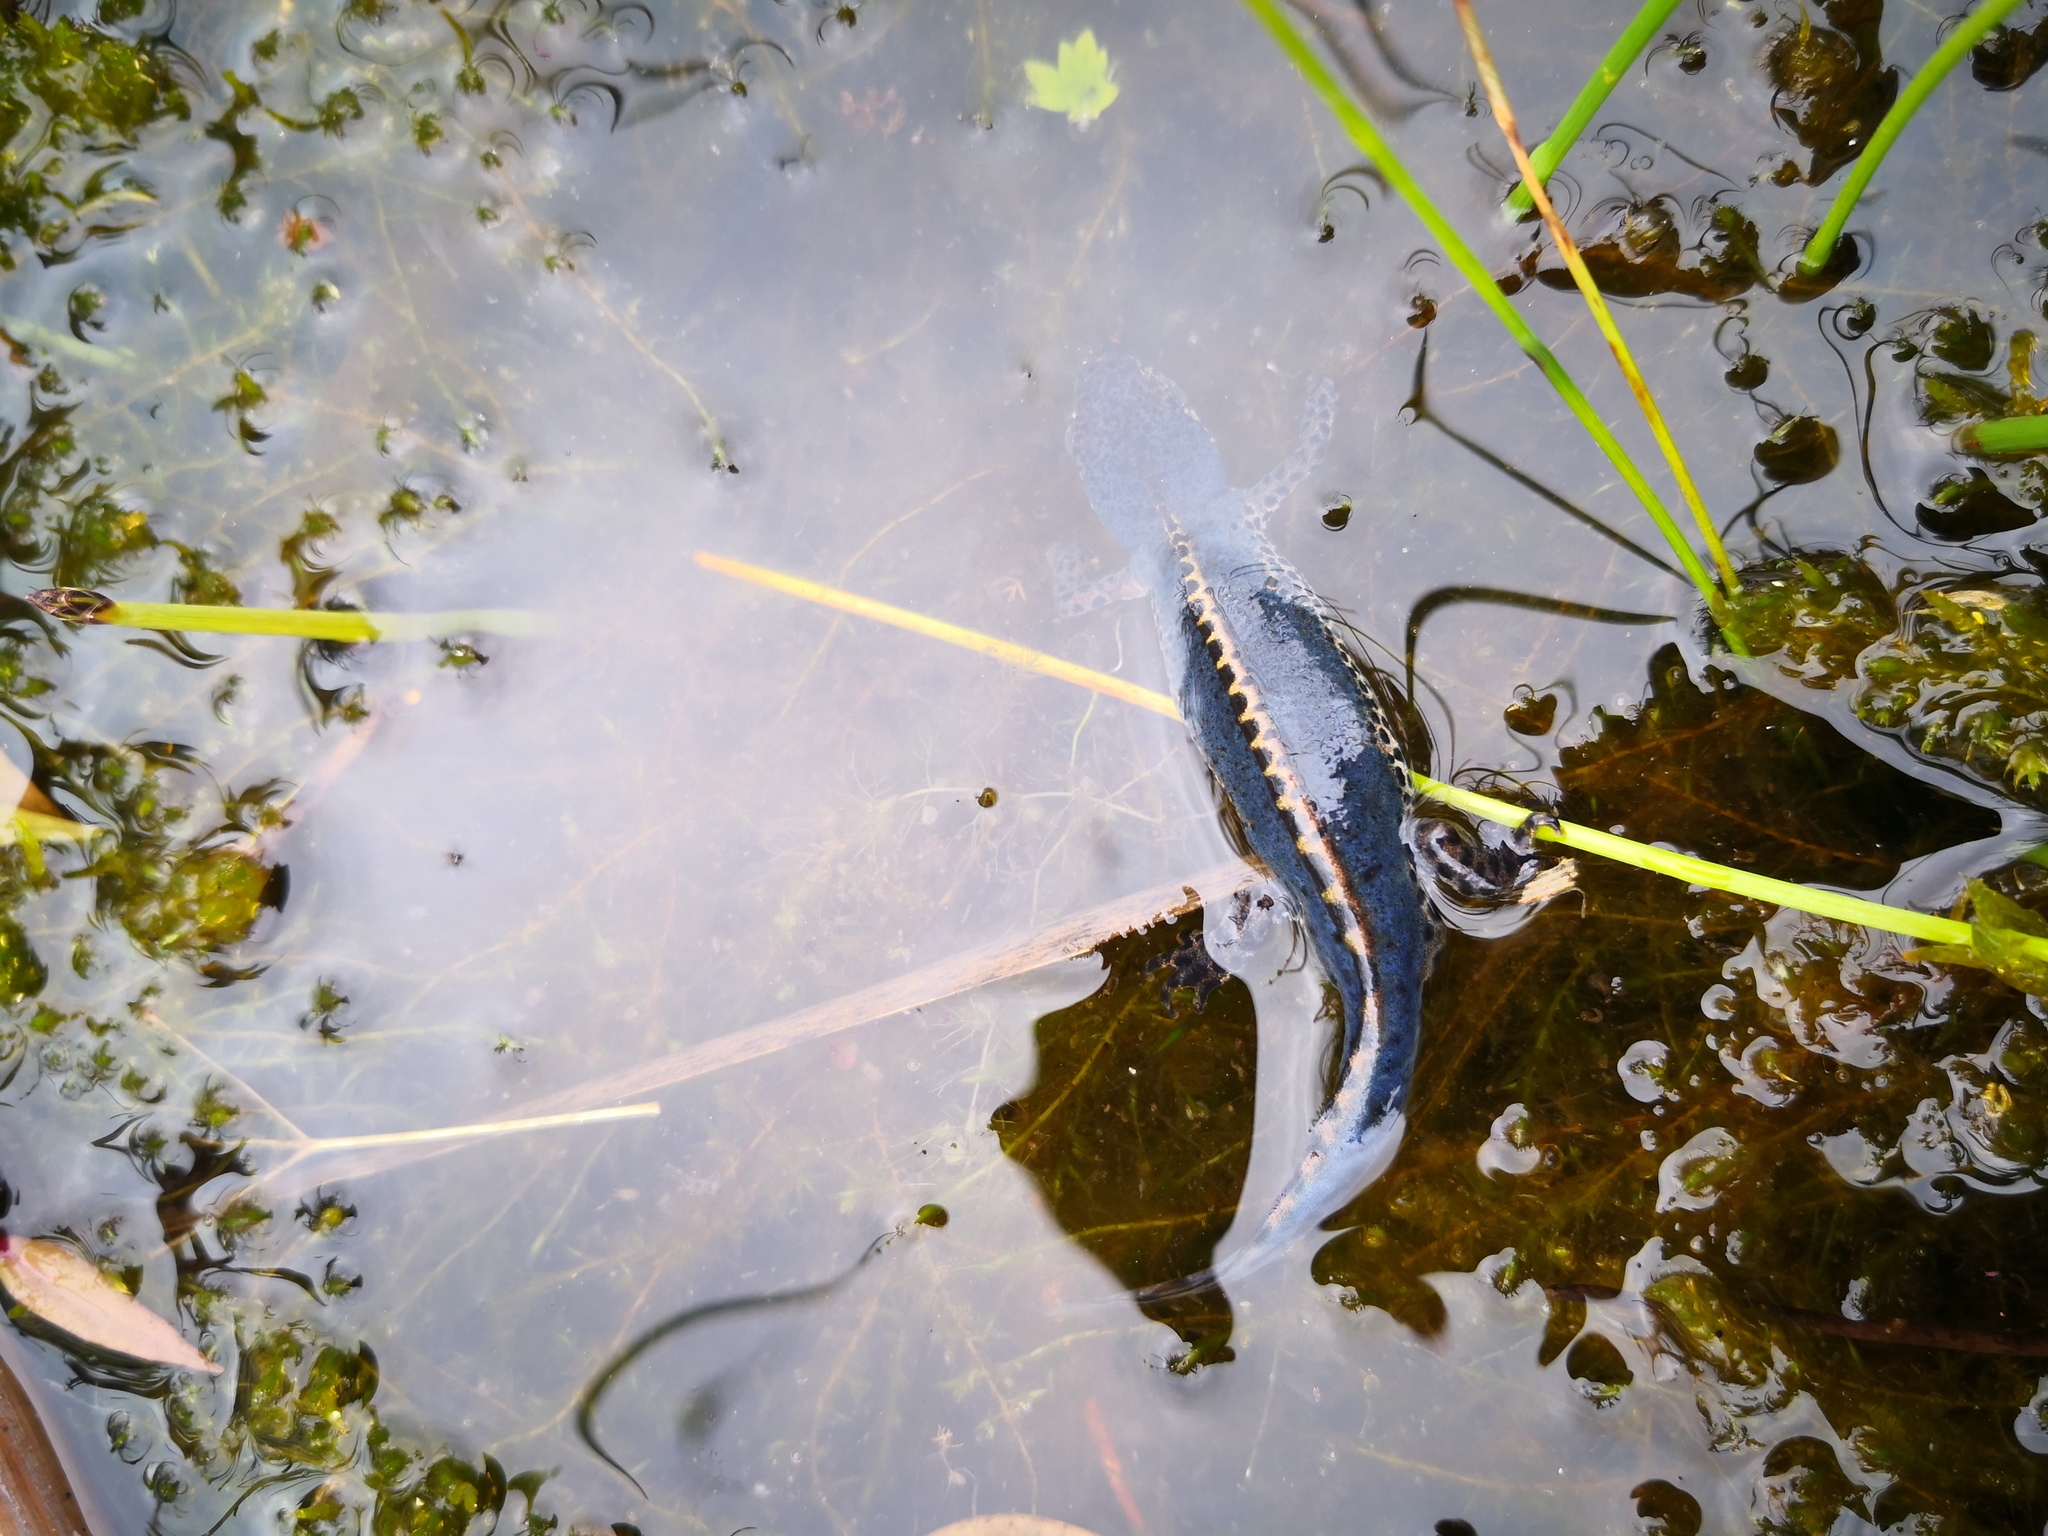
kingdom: Animalia
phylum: Chordata
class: Amphibia
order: Caudata
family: Salamandridae
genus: Ichthyosaura
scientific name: Ichthyosaura alpestris
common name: Alpine newt
